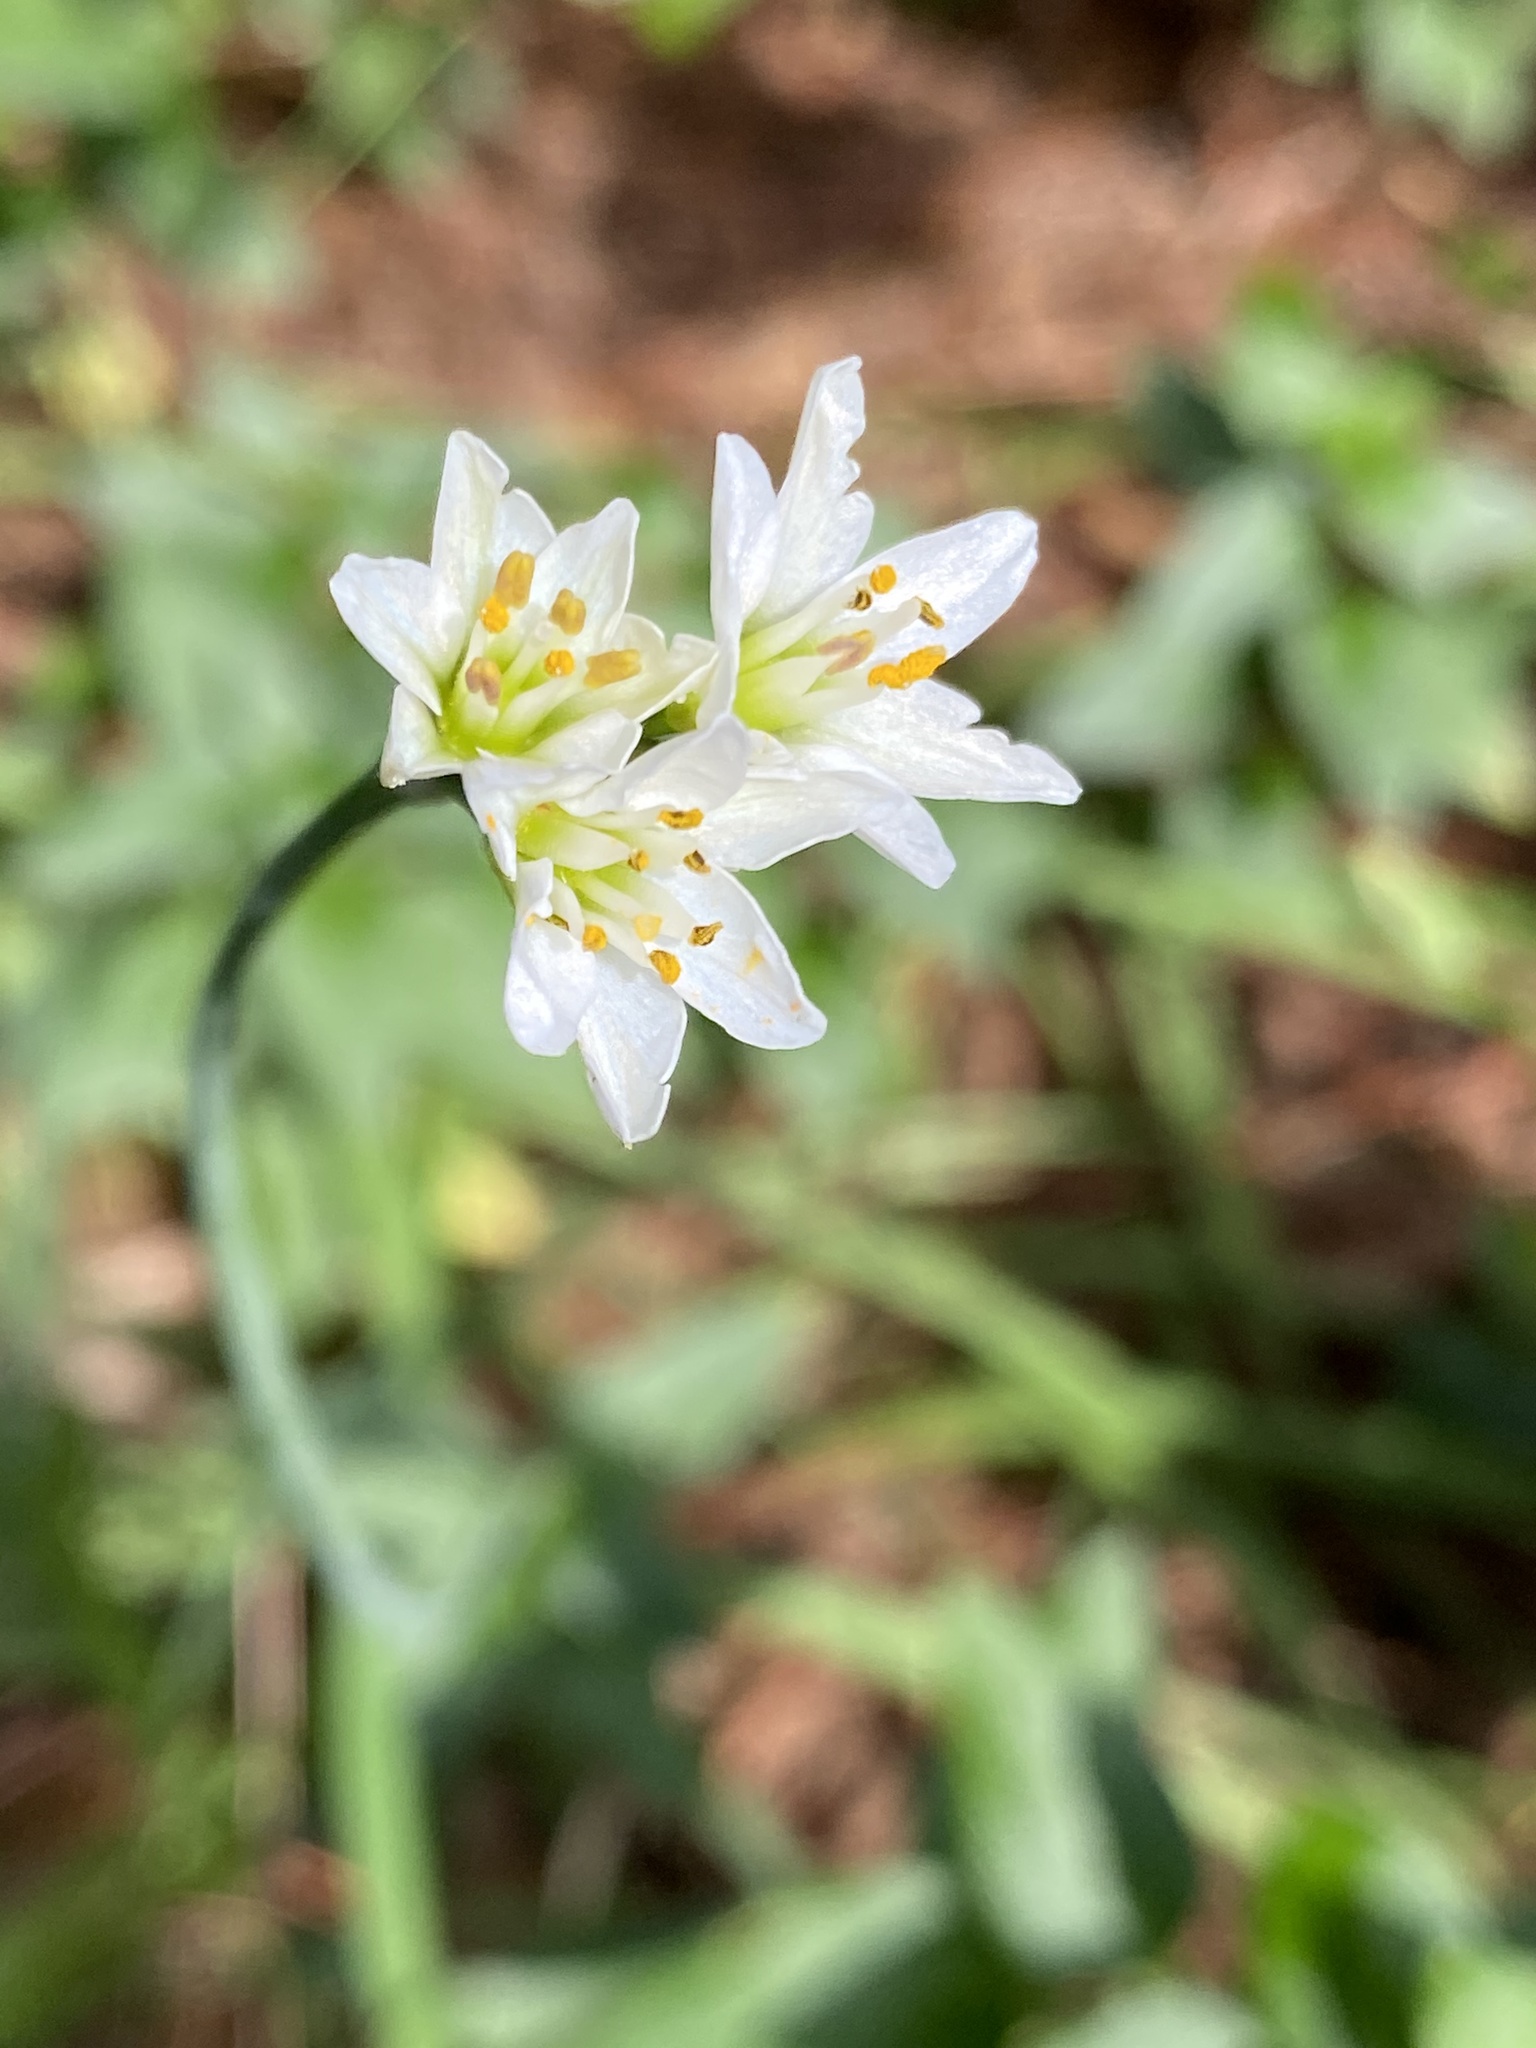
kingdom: Plantae
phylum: Tracheophyta
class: Liliopsida
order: Asparagales
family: Amaryllidaceae
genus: Nothoscordum
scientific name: Nothoscordum gracile
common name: Slender false garlic
